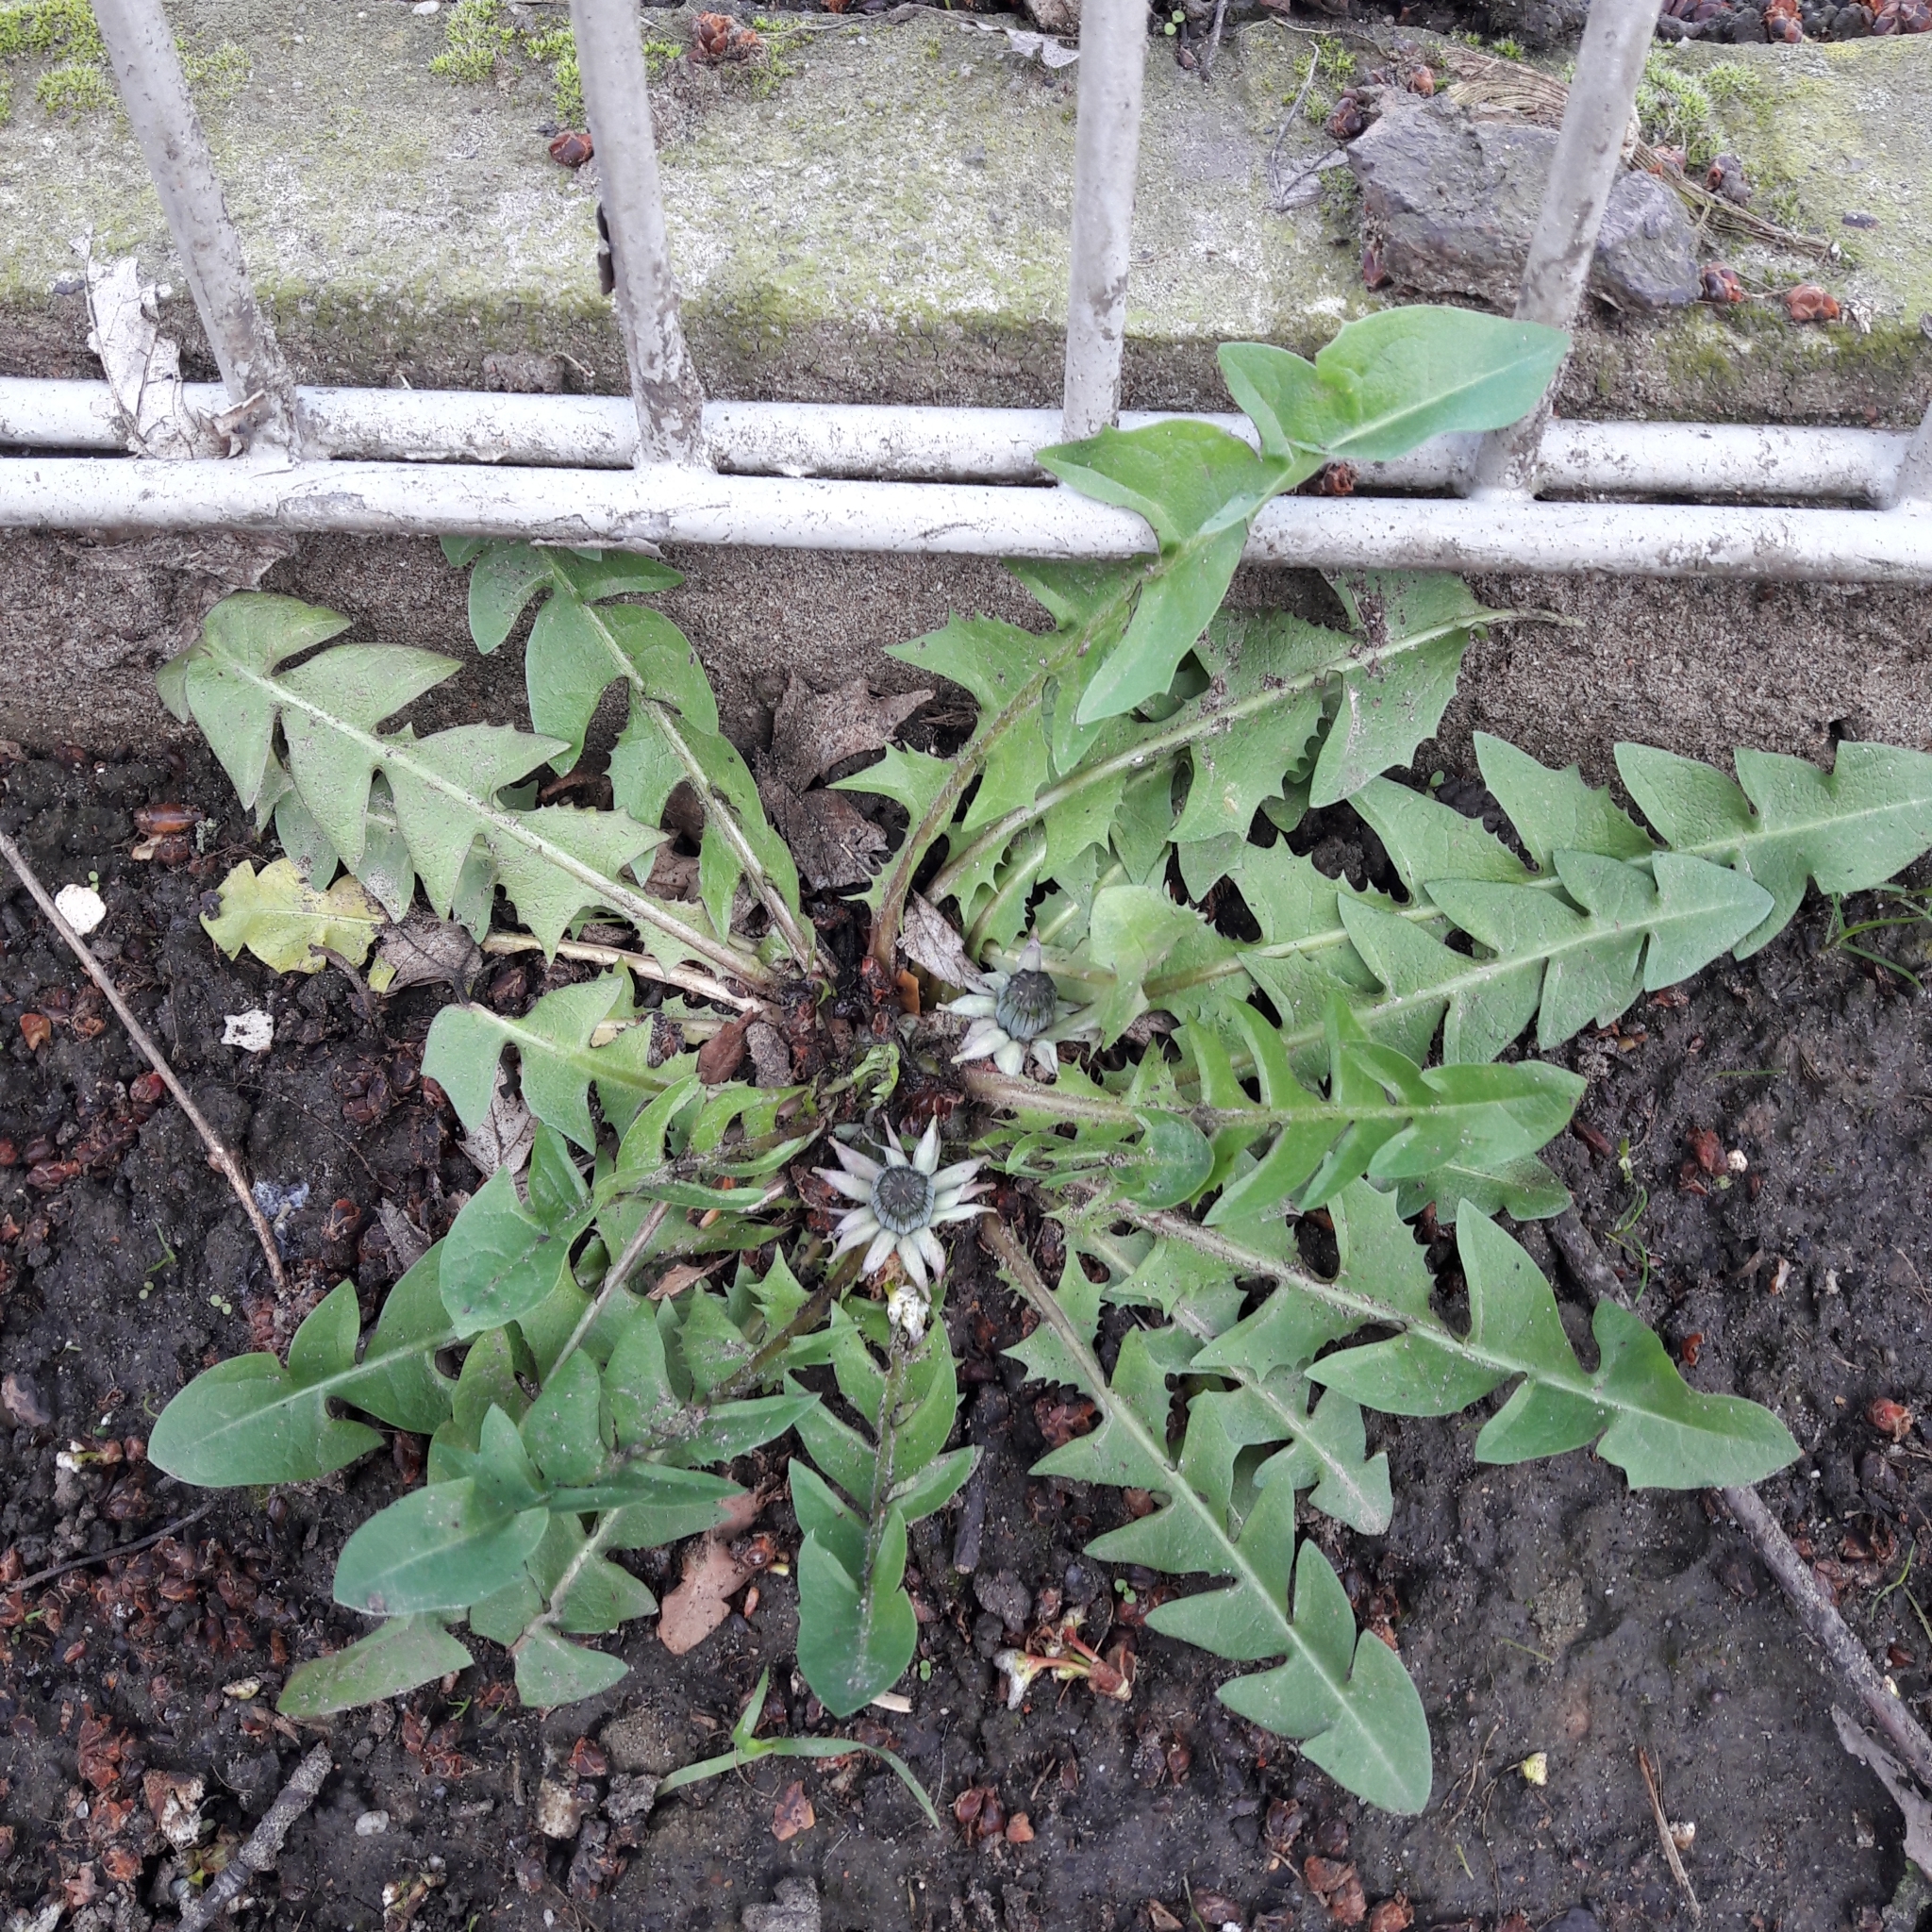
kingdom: Plantae
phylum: Tracheophyta
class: Magnoliopsida
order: Asterales
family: Asteraceae
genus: Taraxacum
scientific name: Taraxacum officinale
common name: Common dandelion
